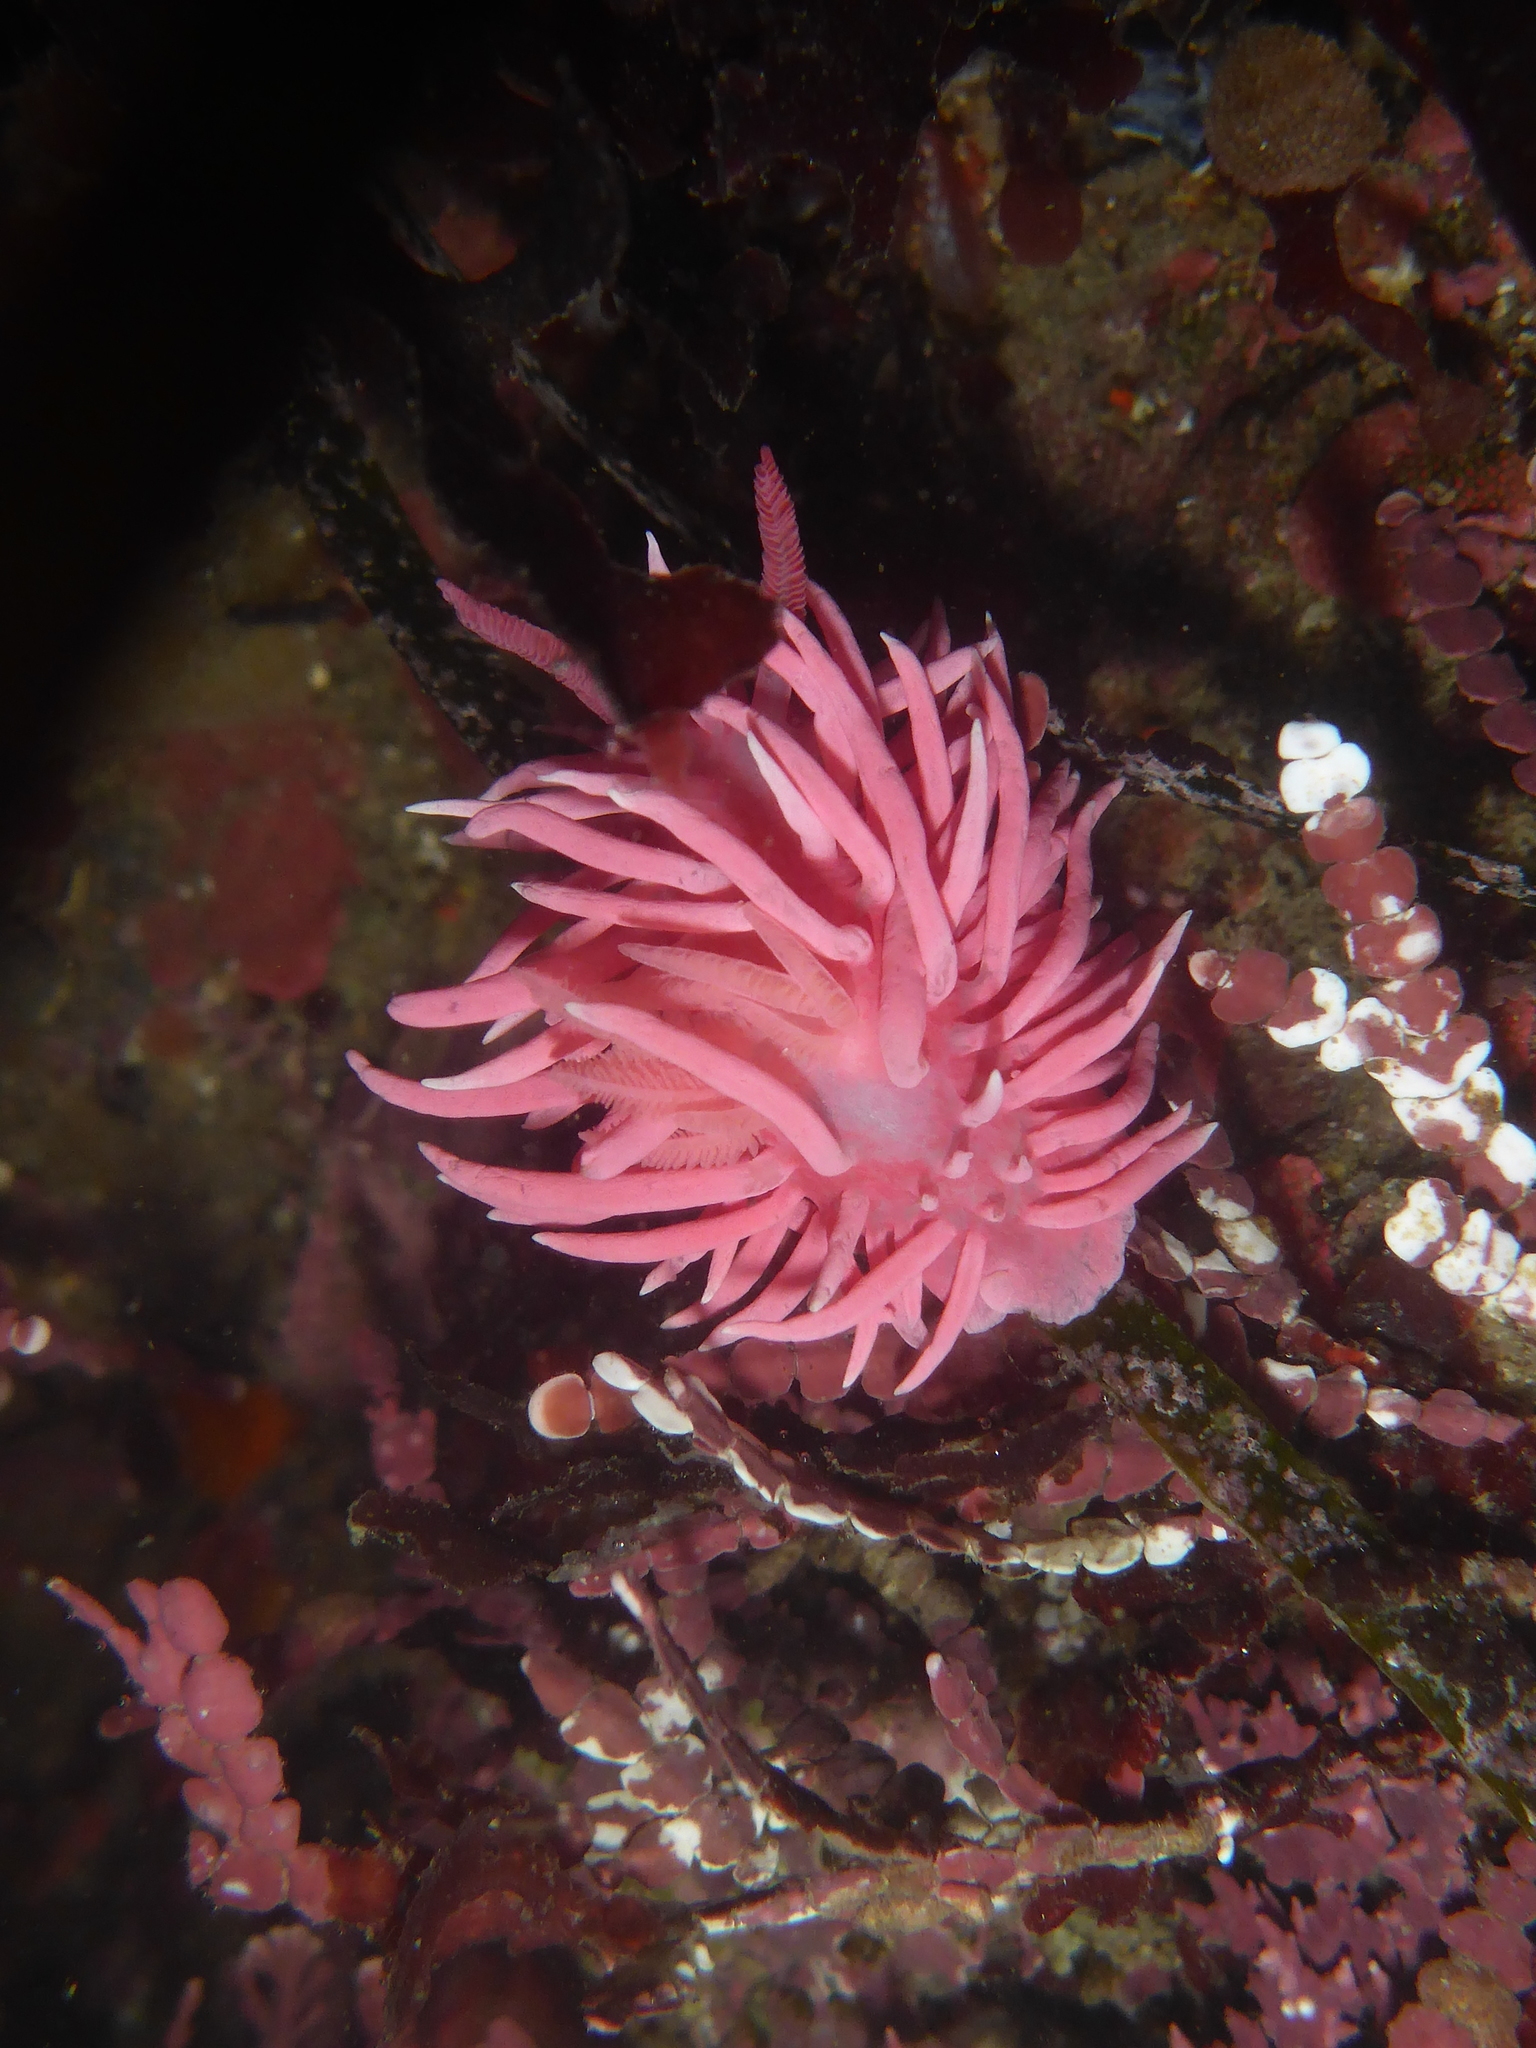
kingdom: Animalia
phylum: Mollusca
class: Gastropoda
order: Nudibranchia
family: Goniodorididae
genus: Okenia
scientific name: Okenia
